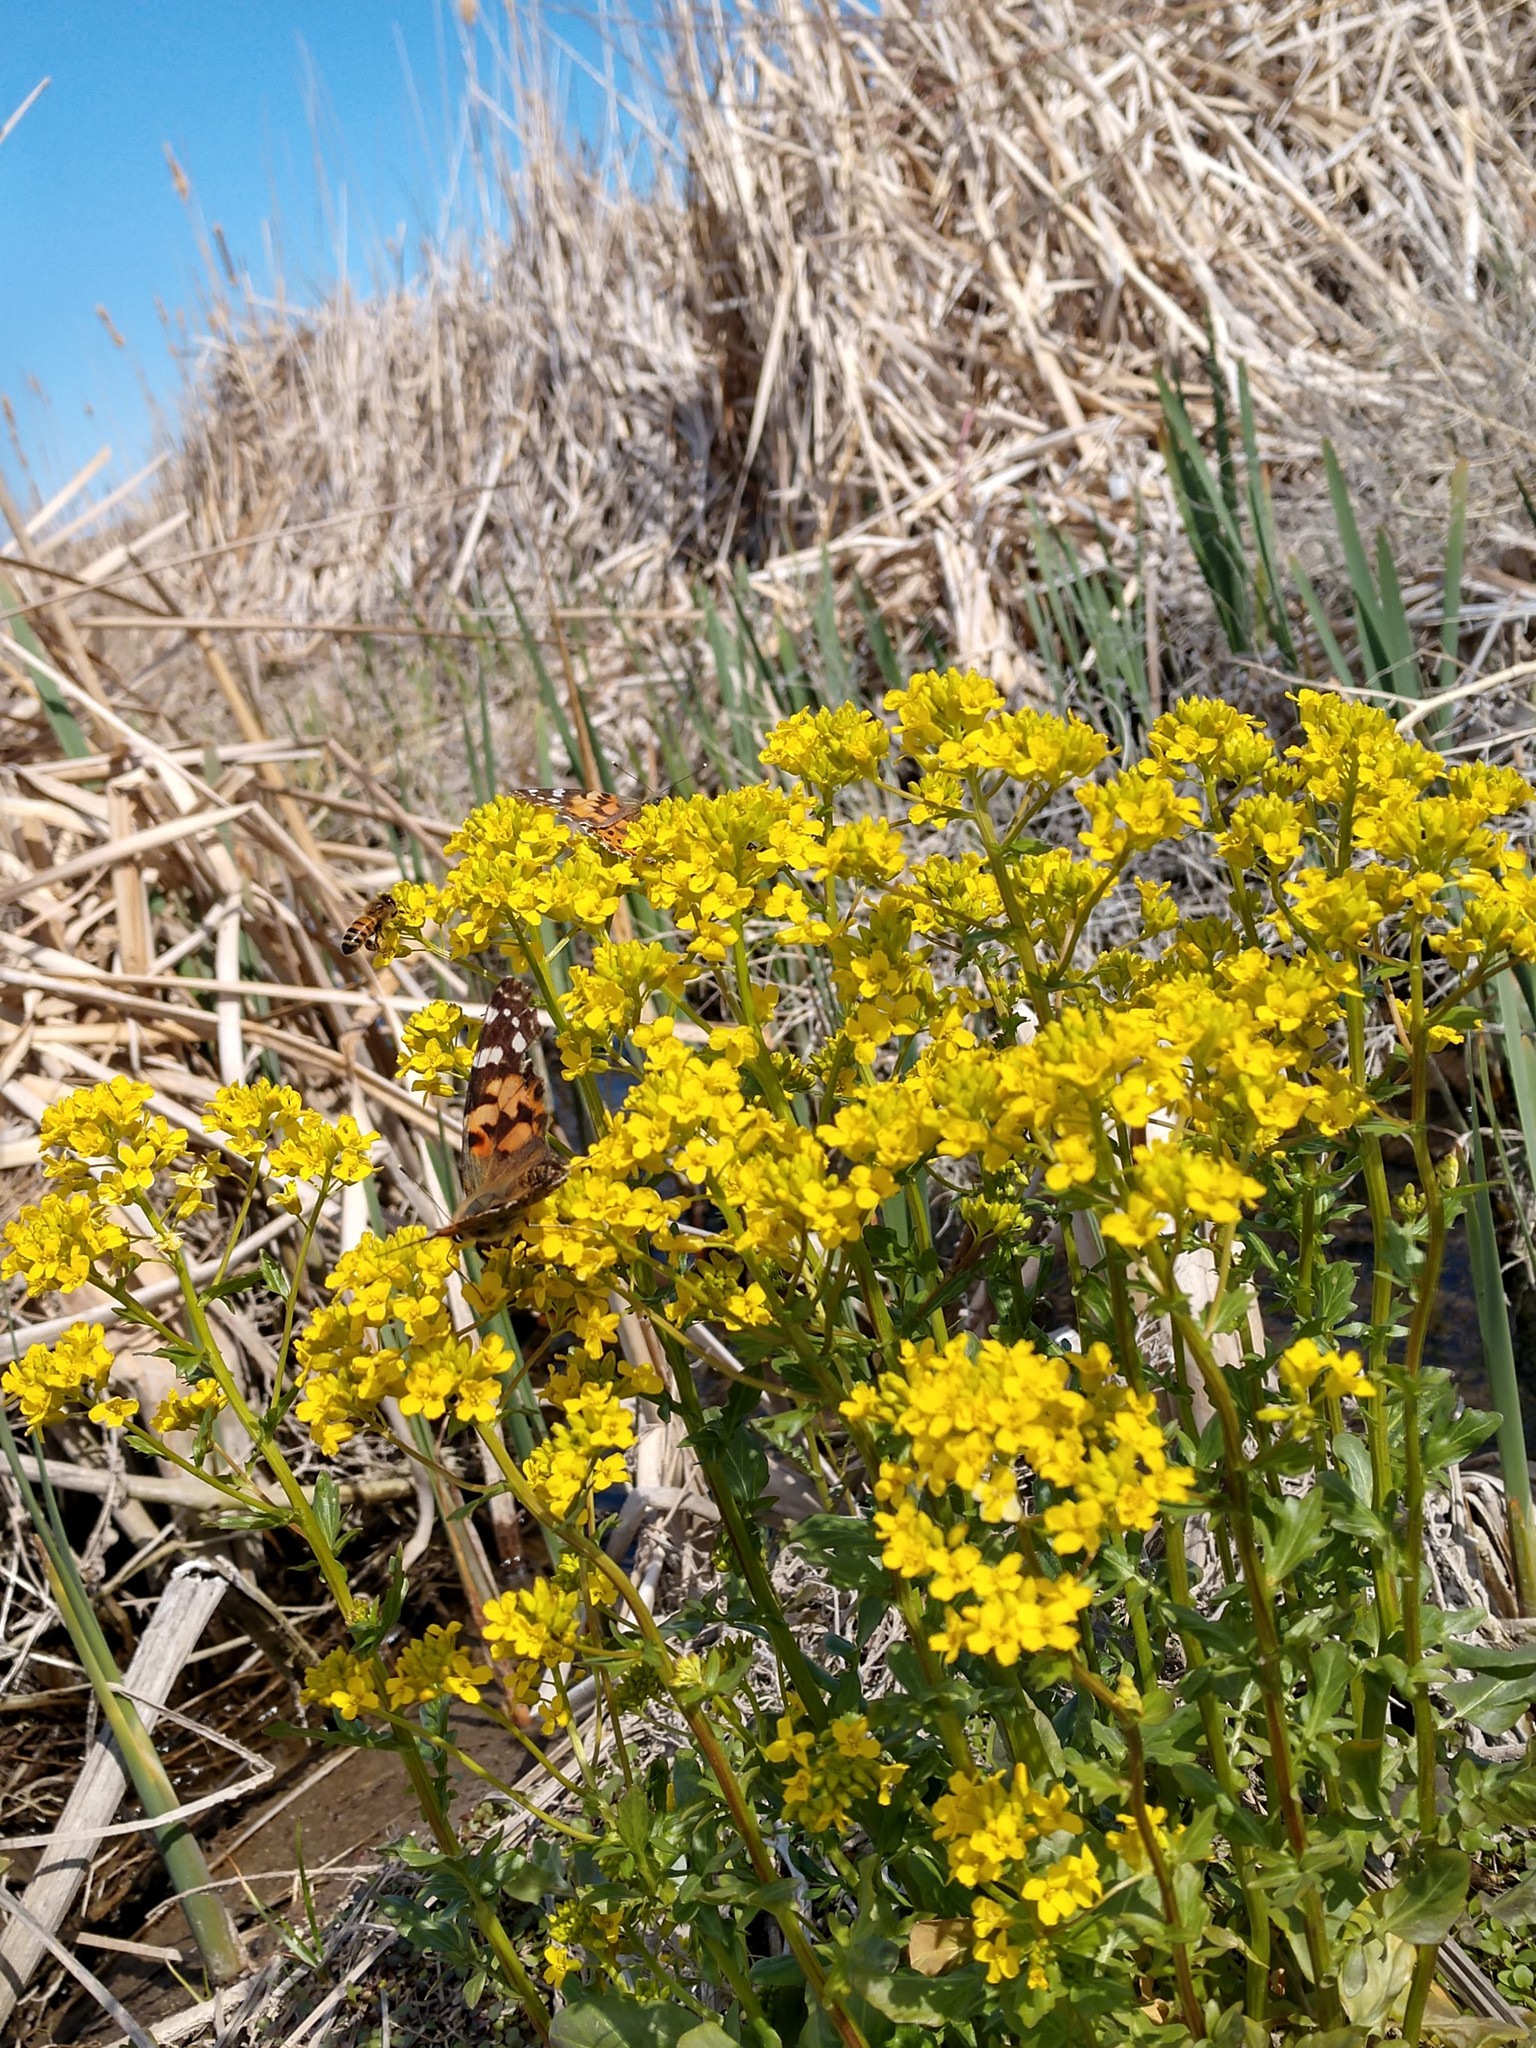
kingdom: Animalia
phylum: Arthropoda
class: Insecta
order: Lepidoptera
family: Nymphalidae
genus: Vanessa
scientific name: Vanessa cardui
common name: Painted lady
